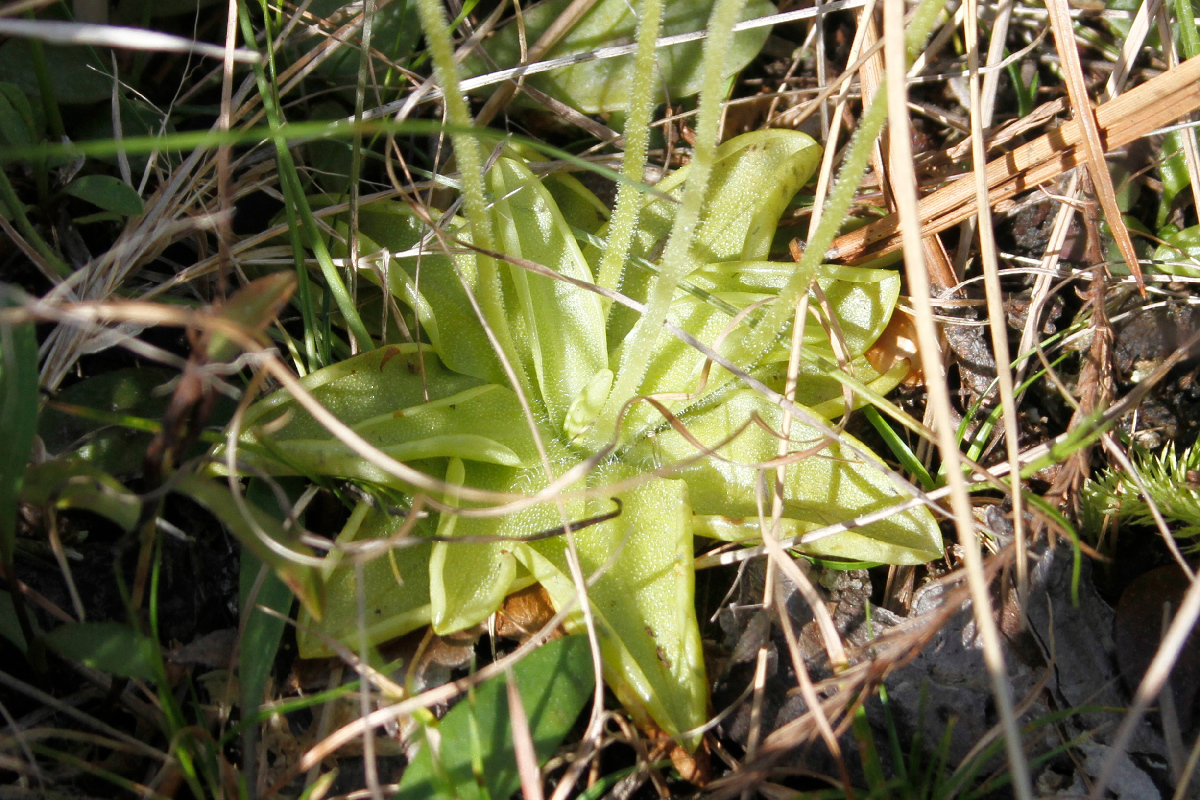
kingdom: Plantae
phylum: Tracheophyta
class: Magnoliopsida
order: Lamiales
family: Lentibulariaceae
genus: Pinguicula
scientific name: Pinguicula lutea
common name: Yellow butterwort
